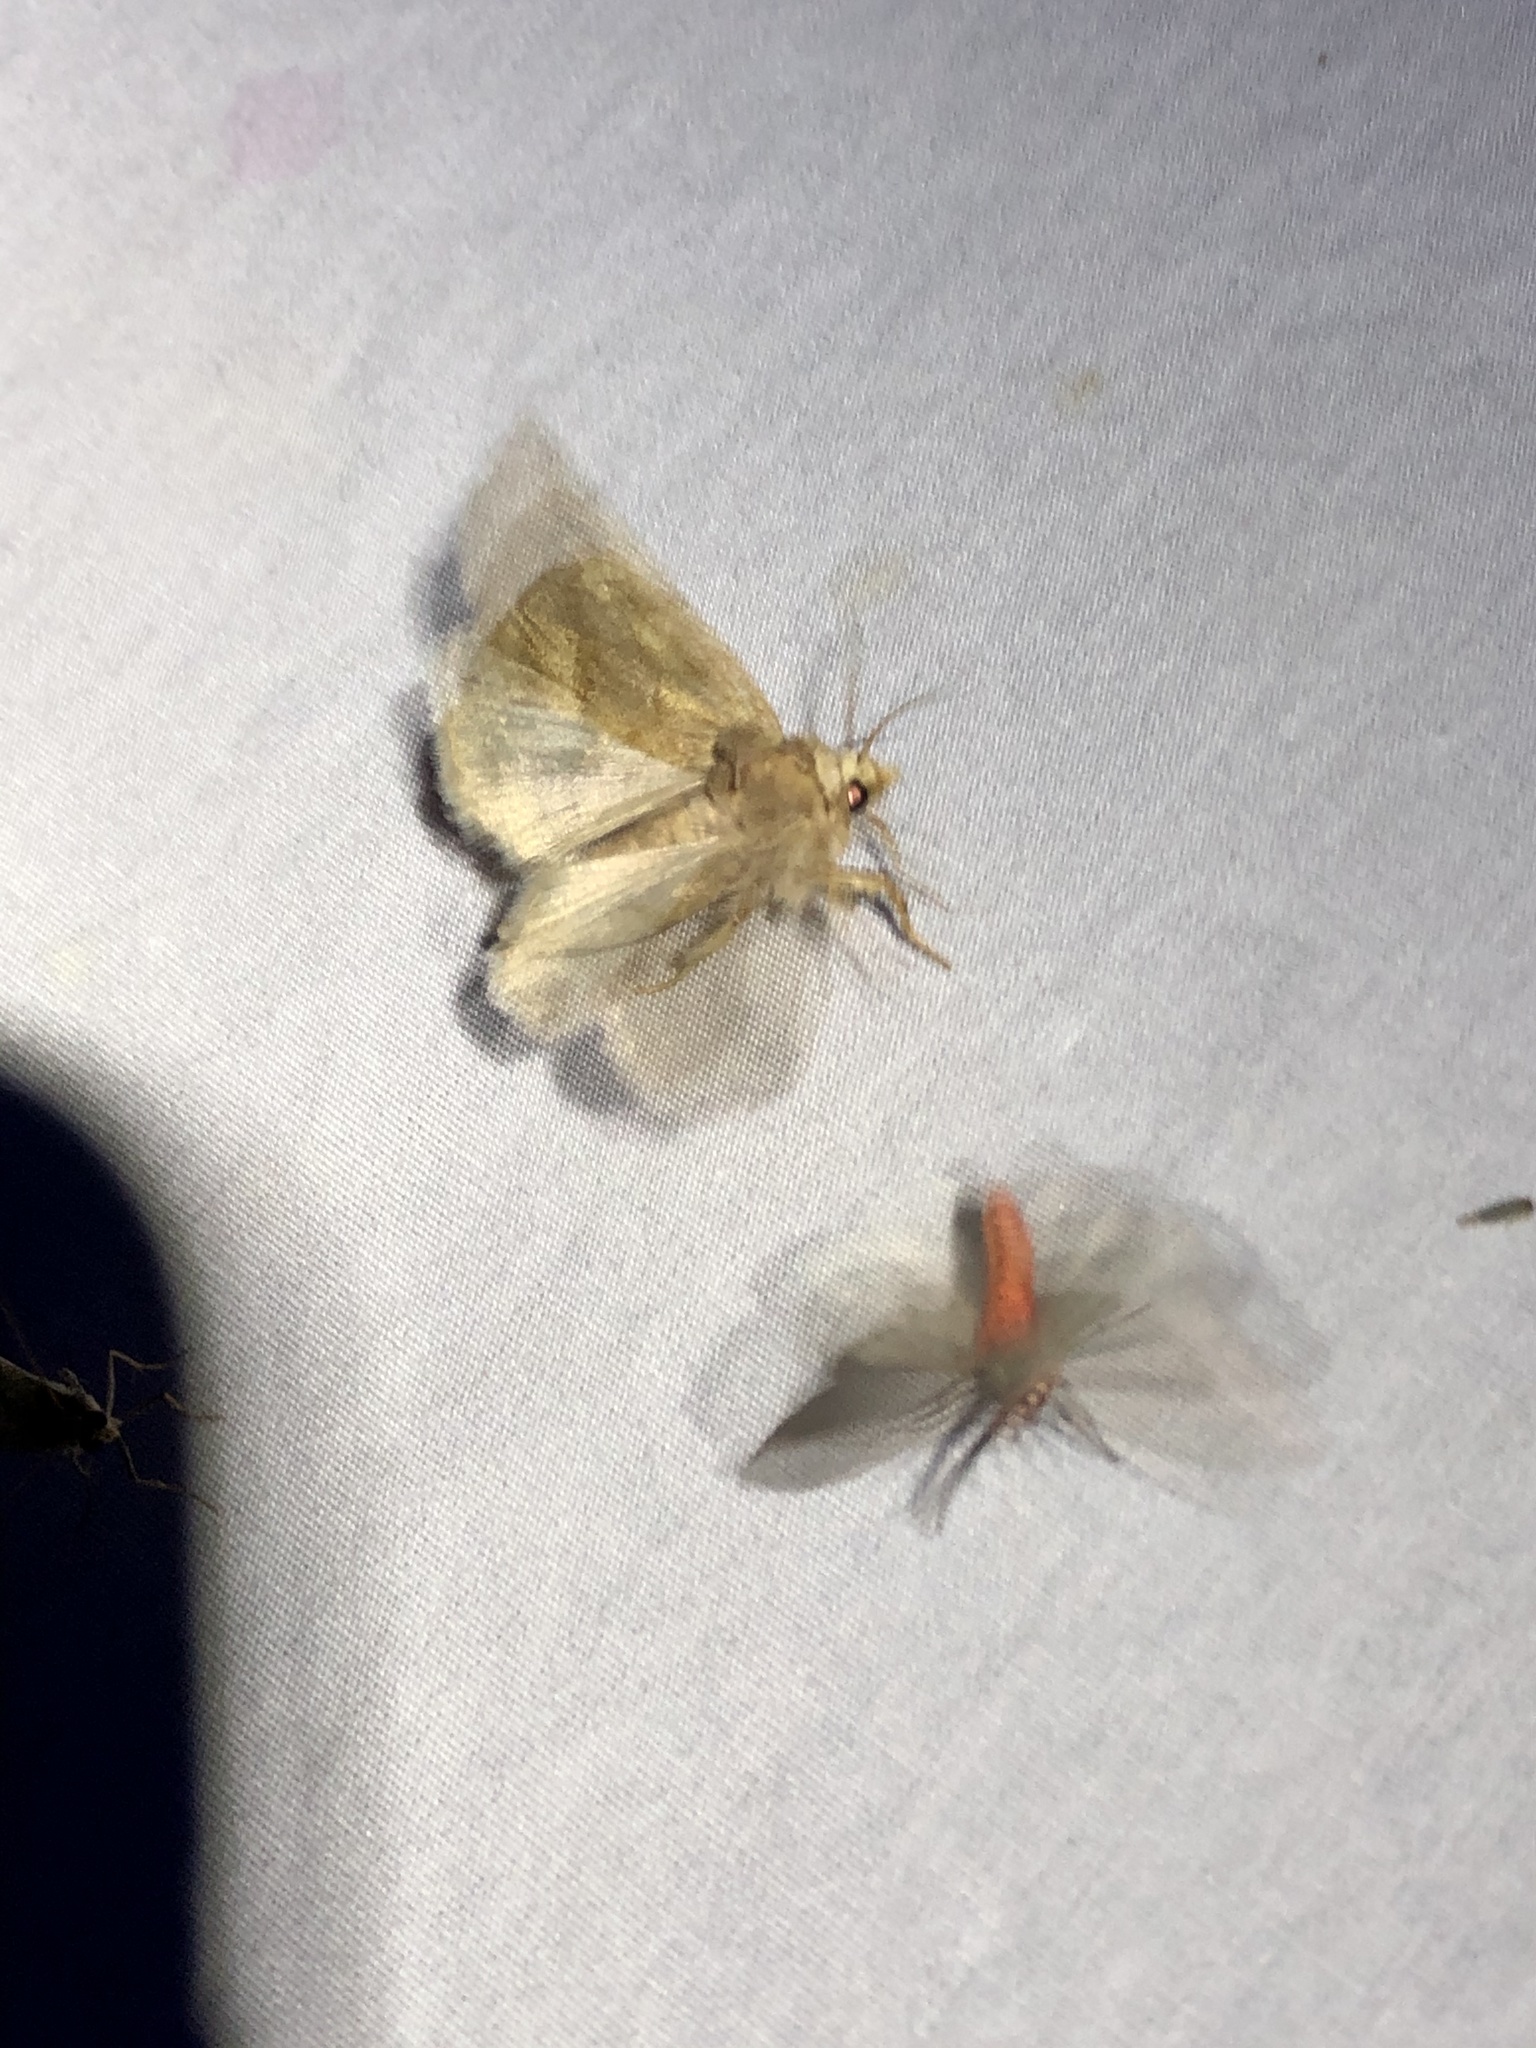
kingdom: Animalia
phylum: Arthropoda
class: Insecta
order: Lepidoptera
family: Noctuidae
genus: Basilodes
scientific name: Basilodes chrysopis
